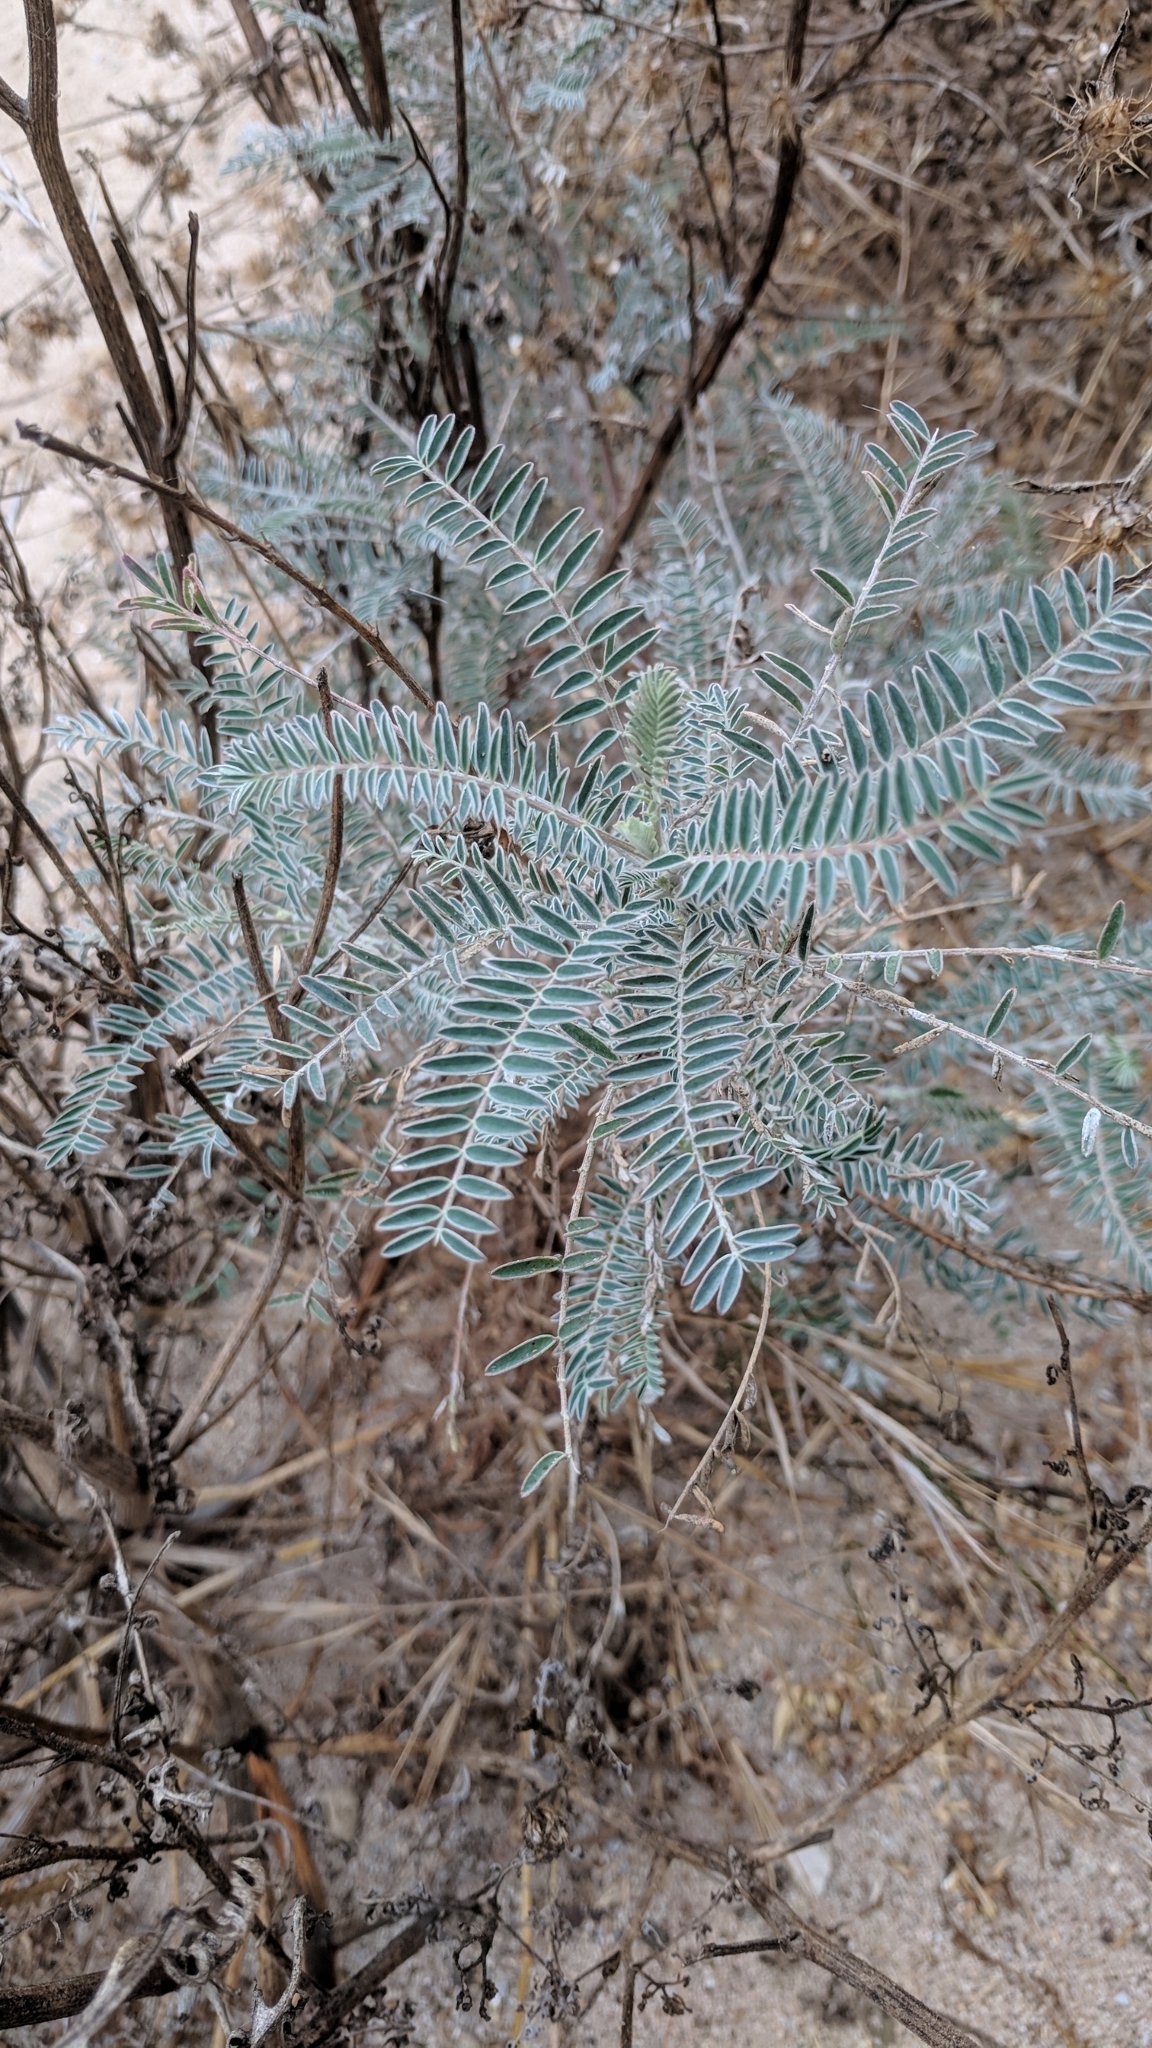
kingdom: Plantae
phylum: Tracheophyta
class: Magnoliopsida
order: Fabales
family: Fabaceae
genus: Astragalus
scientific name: Astragalus trichopodus
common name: Santa barbara milk-vetch
